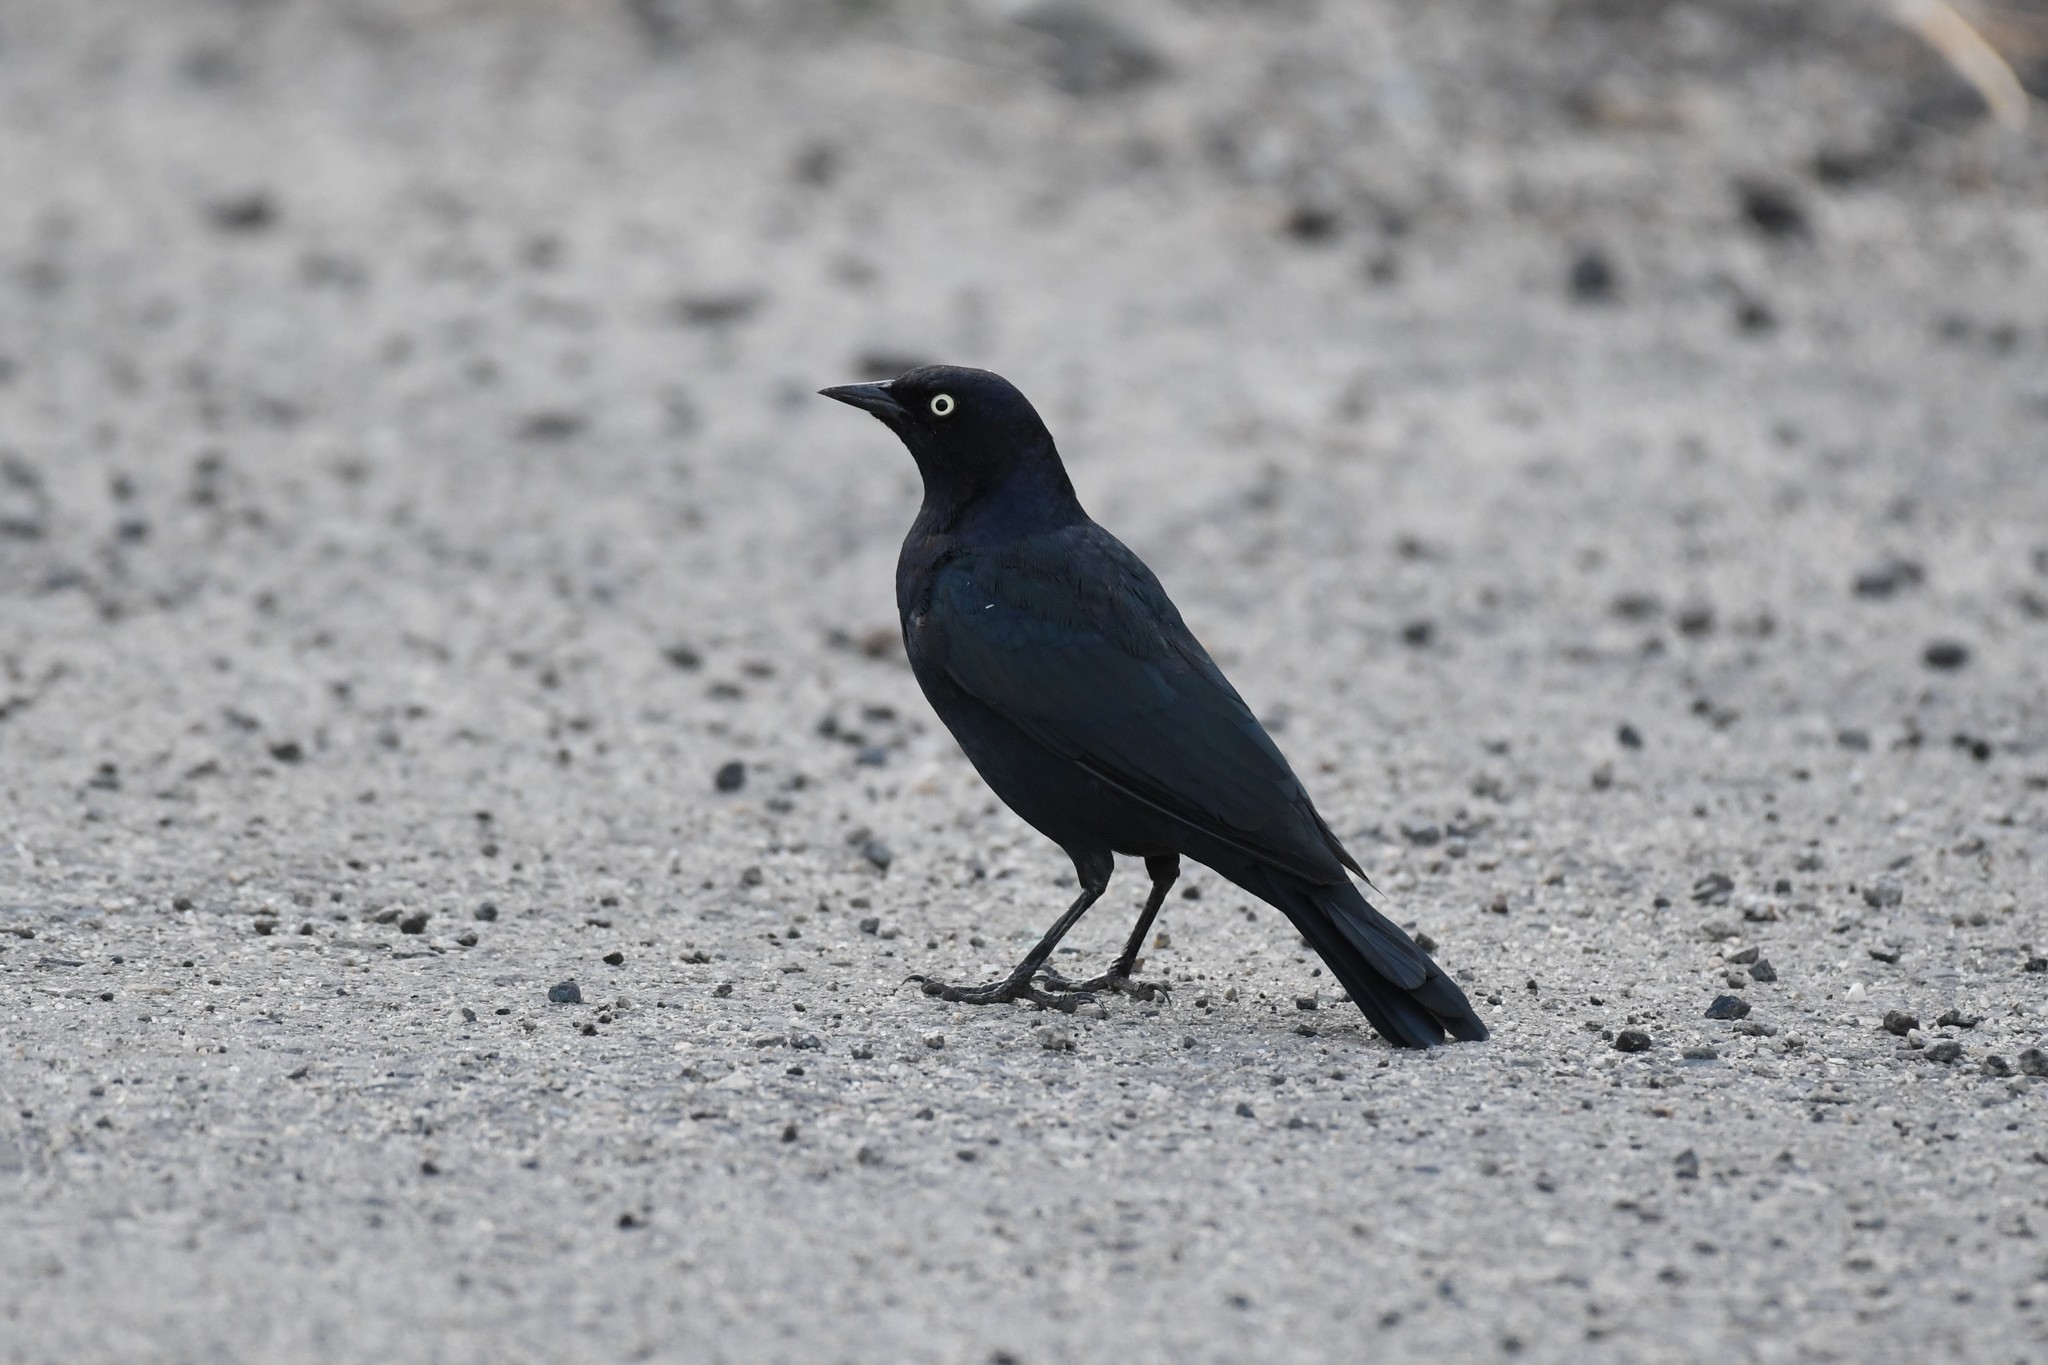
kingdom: Animalia
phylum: Chordata
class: Aves
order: Passeriformes
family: Icteridae
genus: Euphagus
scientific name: Euphagus cyanocephalus
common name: Brewer's blackbird
